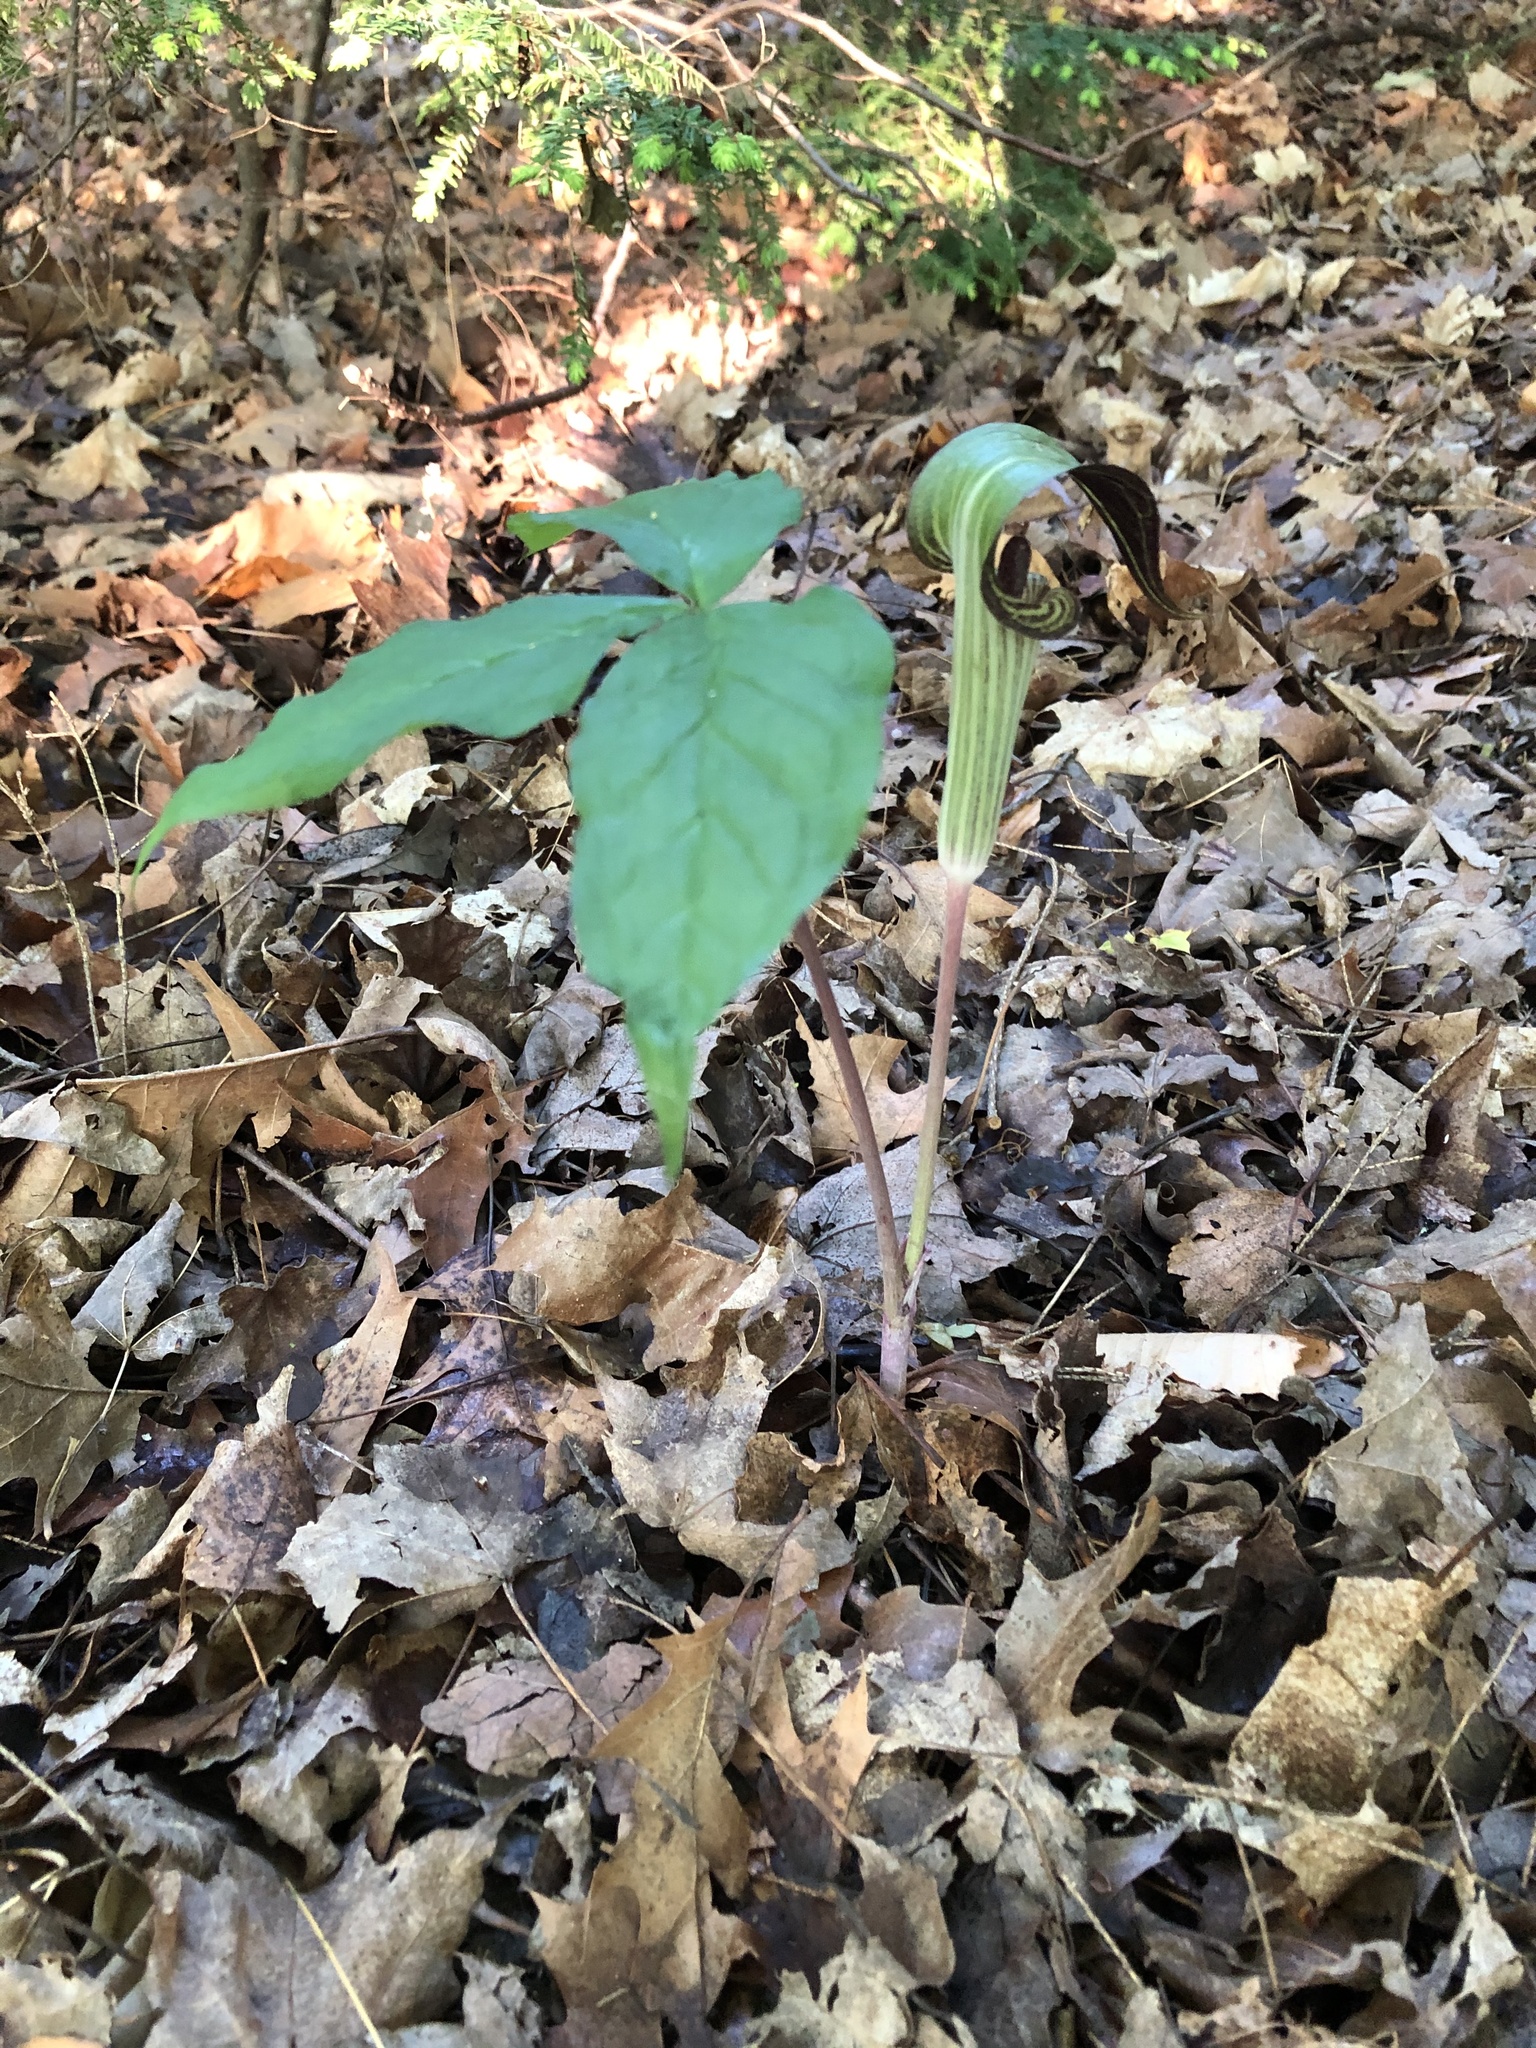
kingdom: Plantae
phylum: Tracheophyta
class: Liliopsida
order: Alismatales
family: Araceae
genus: Arisaema
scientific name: Arisaema triphyllum
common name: Jack-in-the-pulpit
